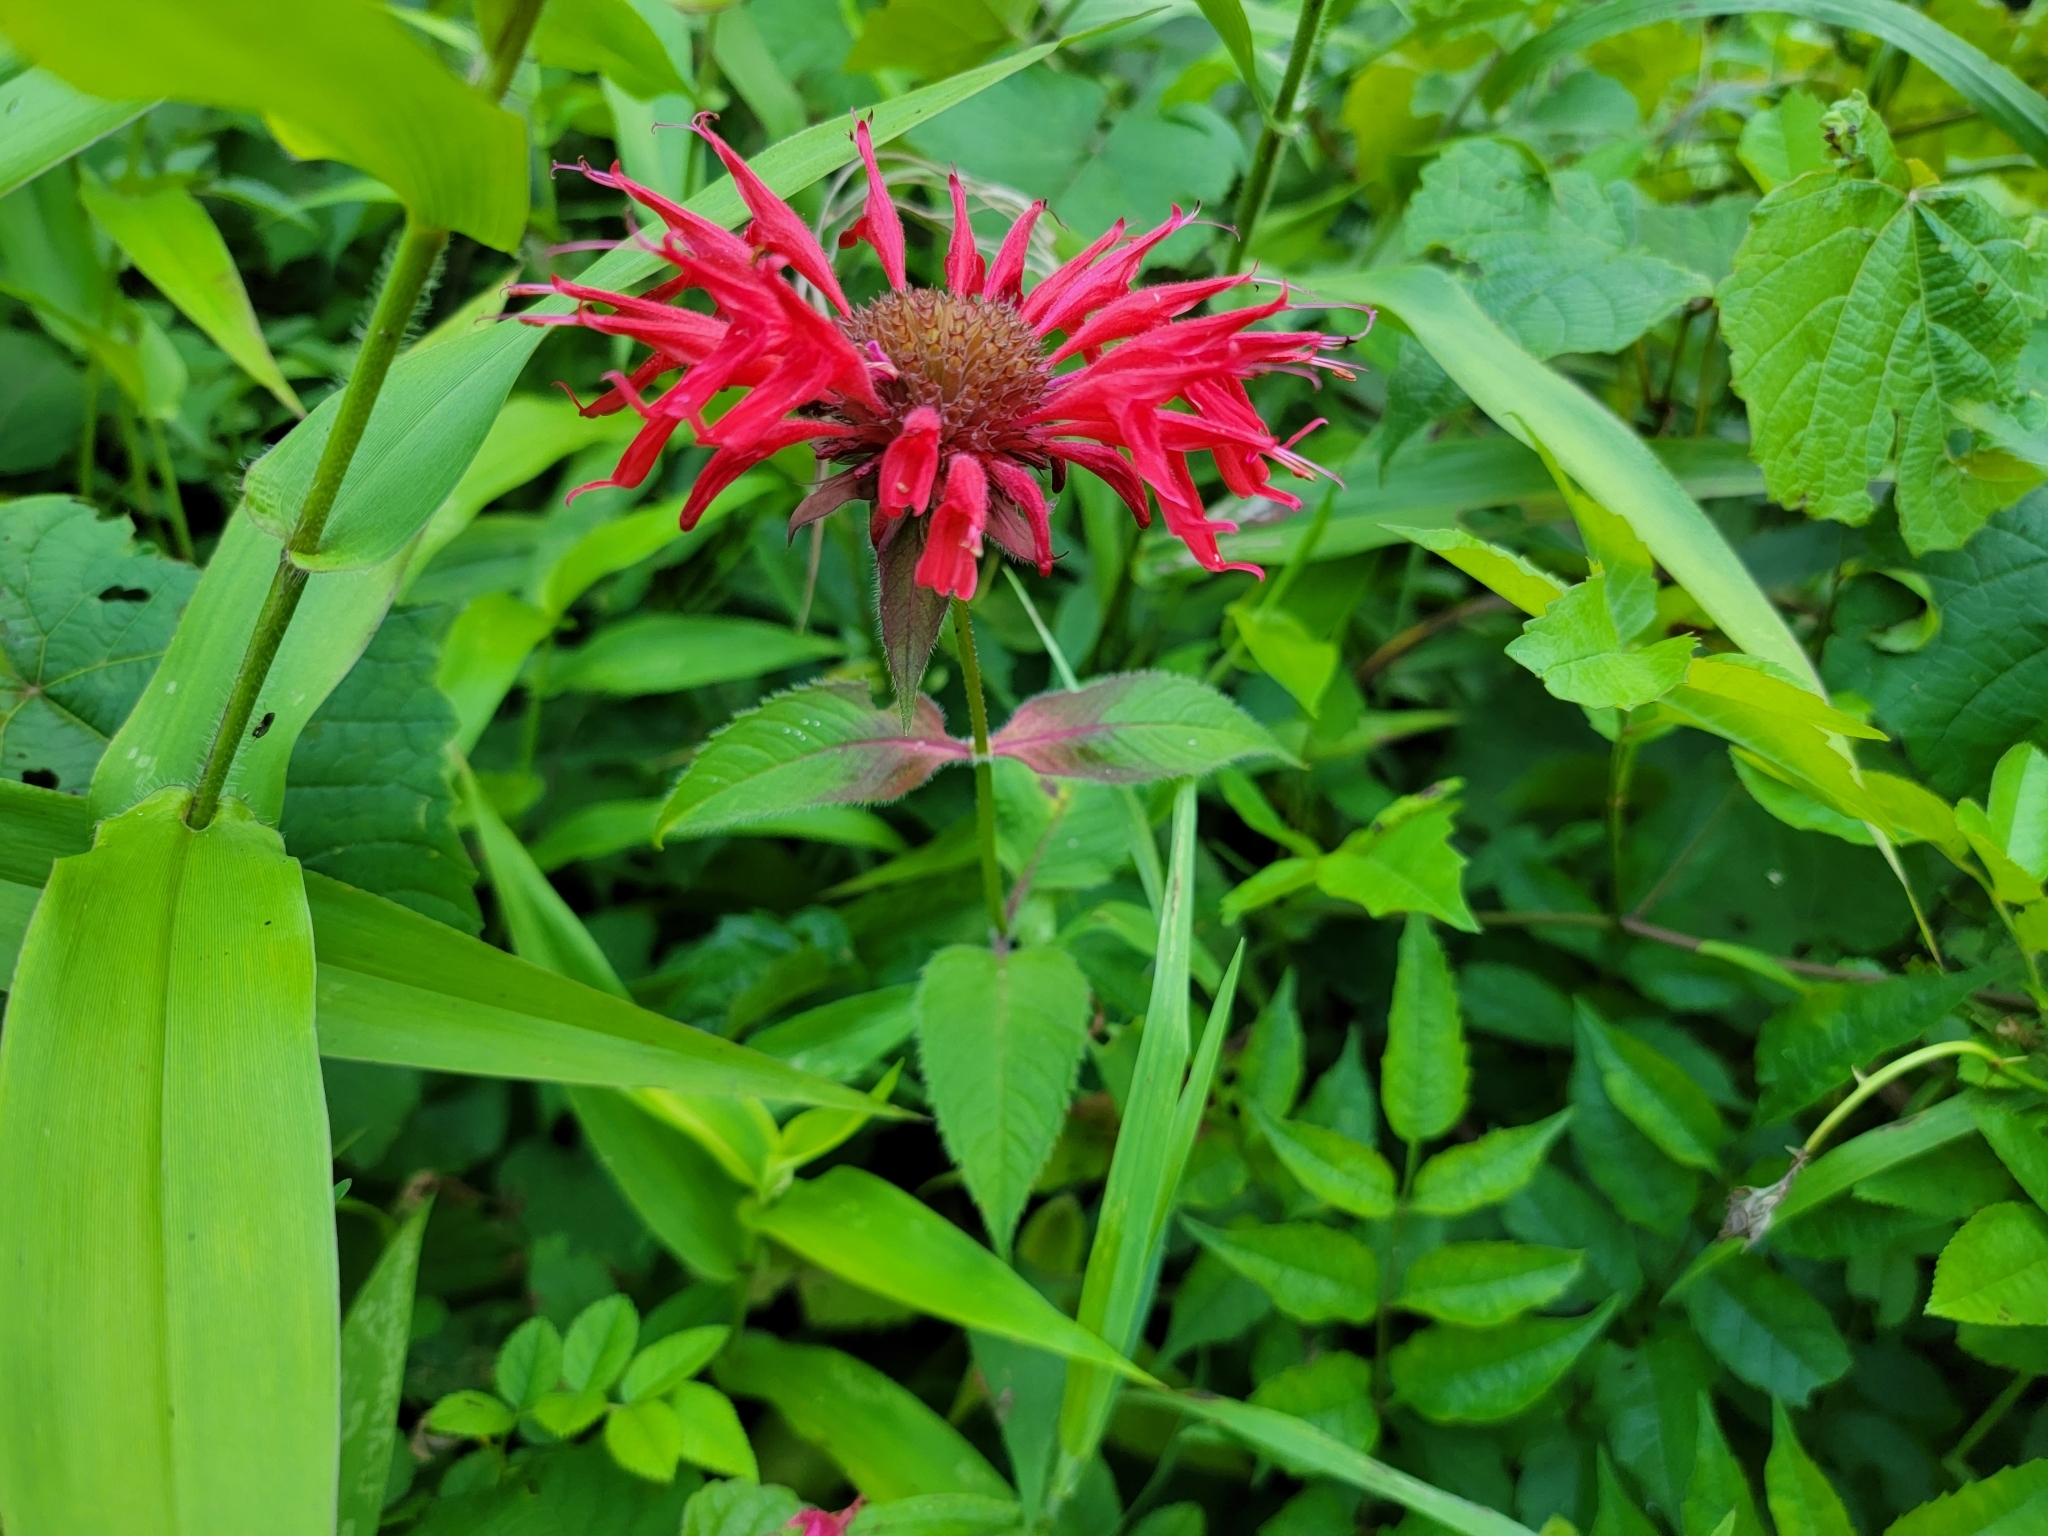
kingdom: Plantae
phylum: Tracheophyta
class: Magnoliopsida
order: Lamiales
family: Lamiaceae
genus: Monarda
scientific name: Monarda didyma
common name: Beebalm
